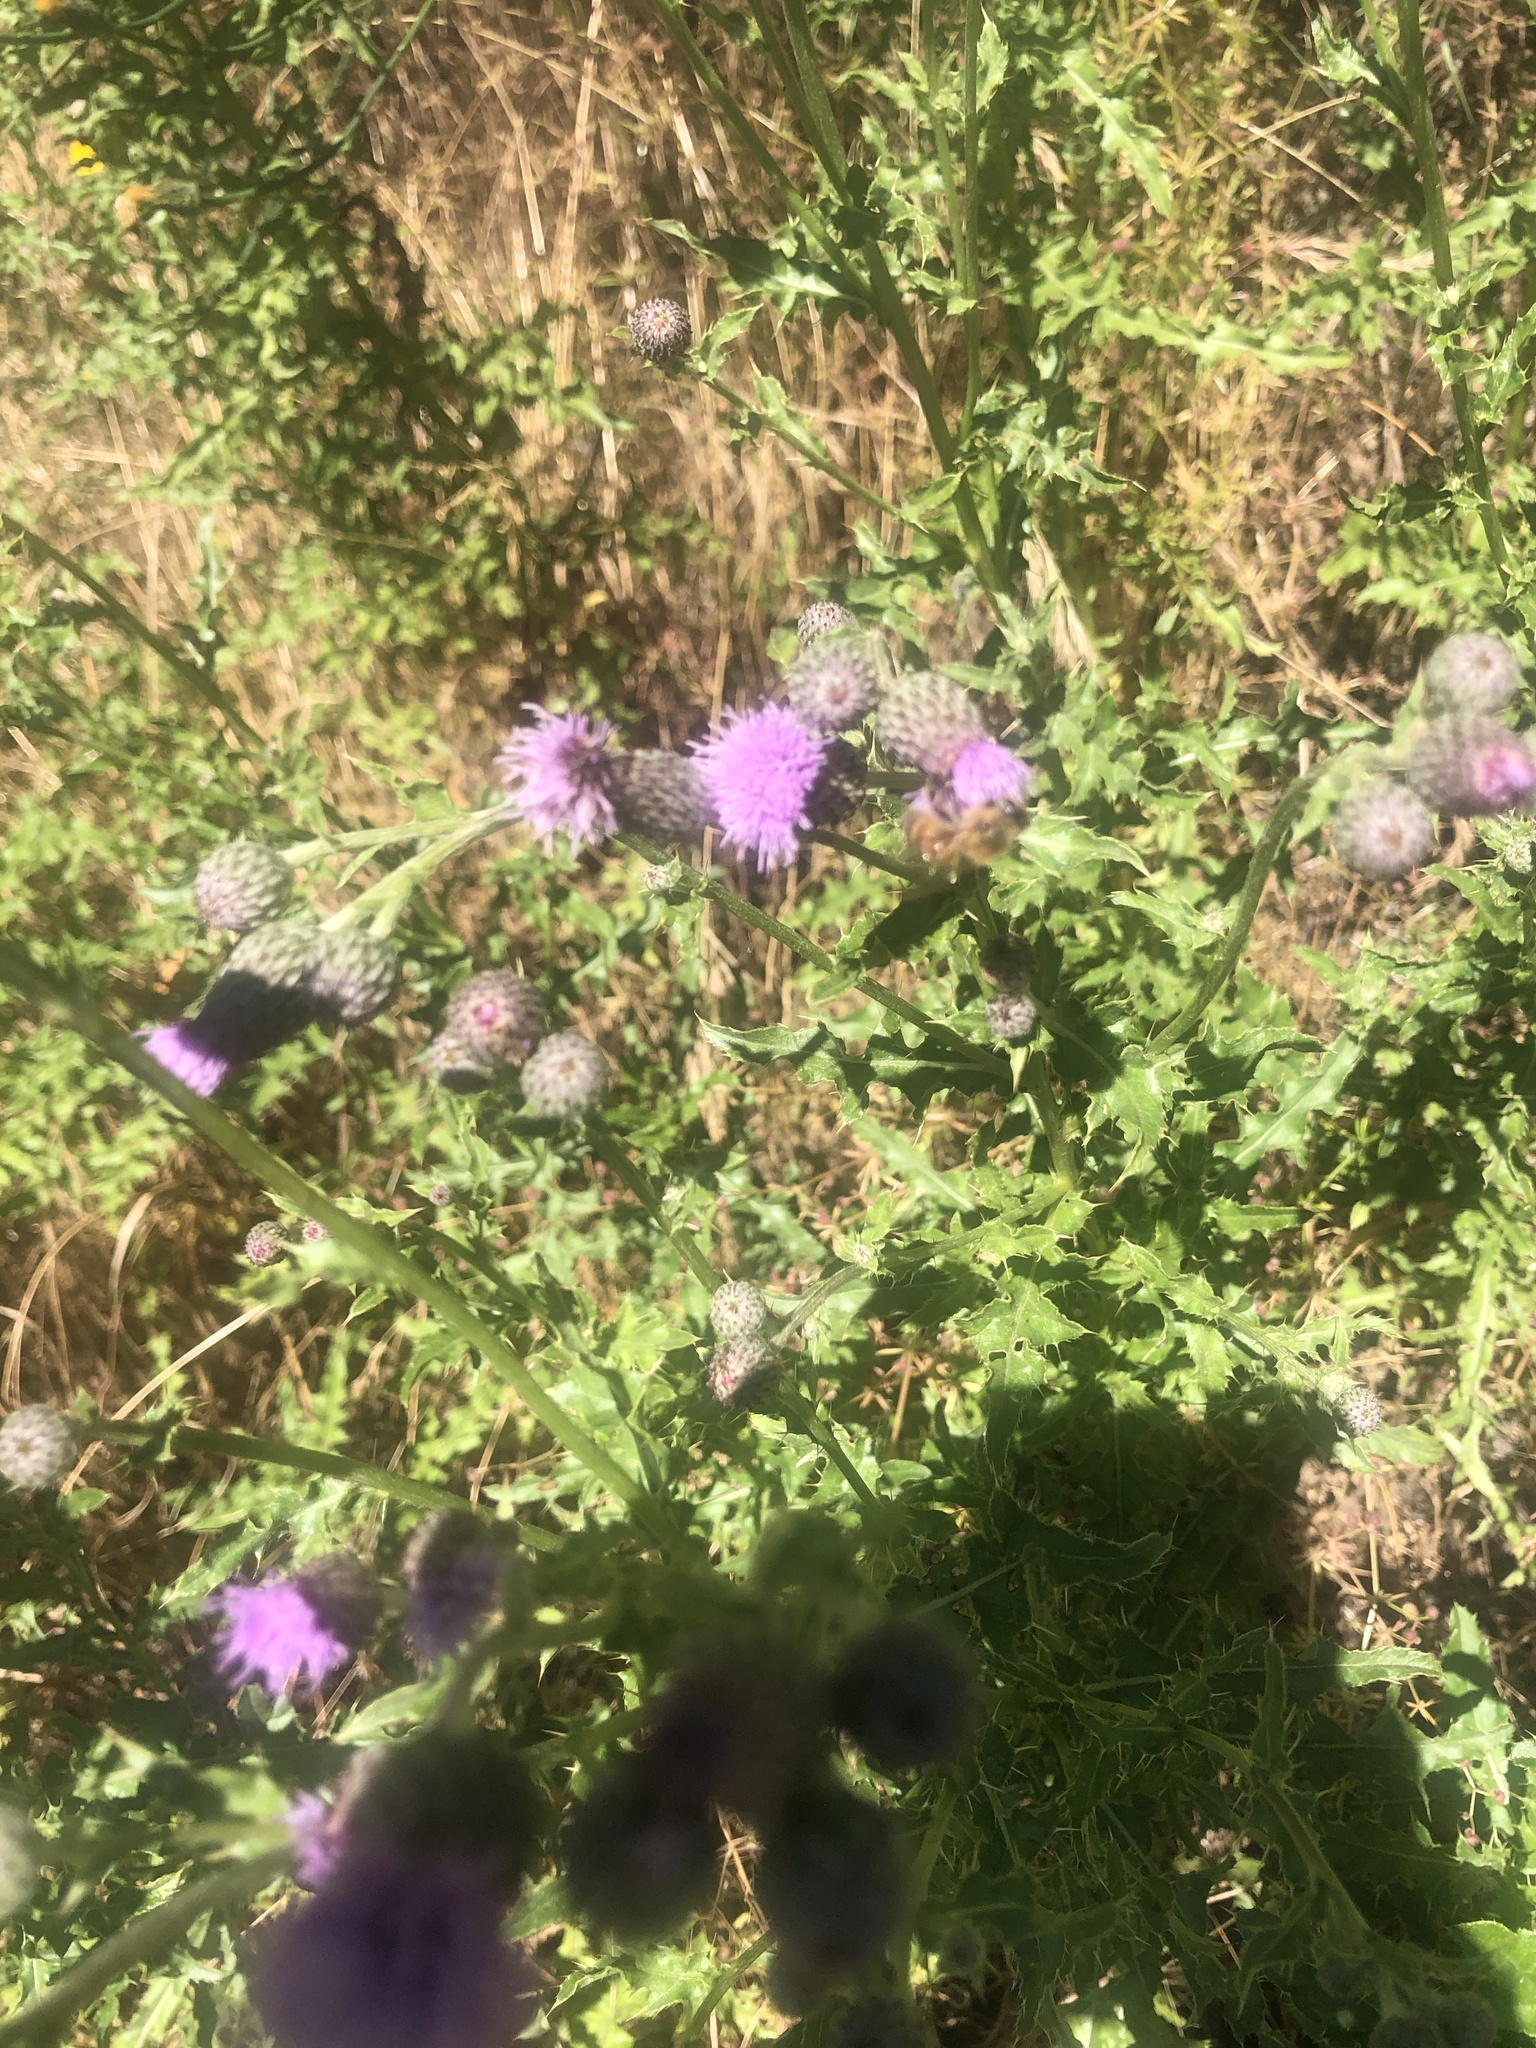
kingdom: Animalia
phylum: Arthropoda
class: Insecta
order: Hymenoptera
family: Apidae
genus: Apis
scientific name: Apis mellifera
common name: Honey bee
